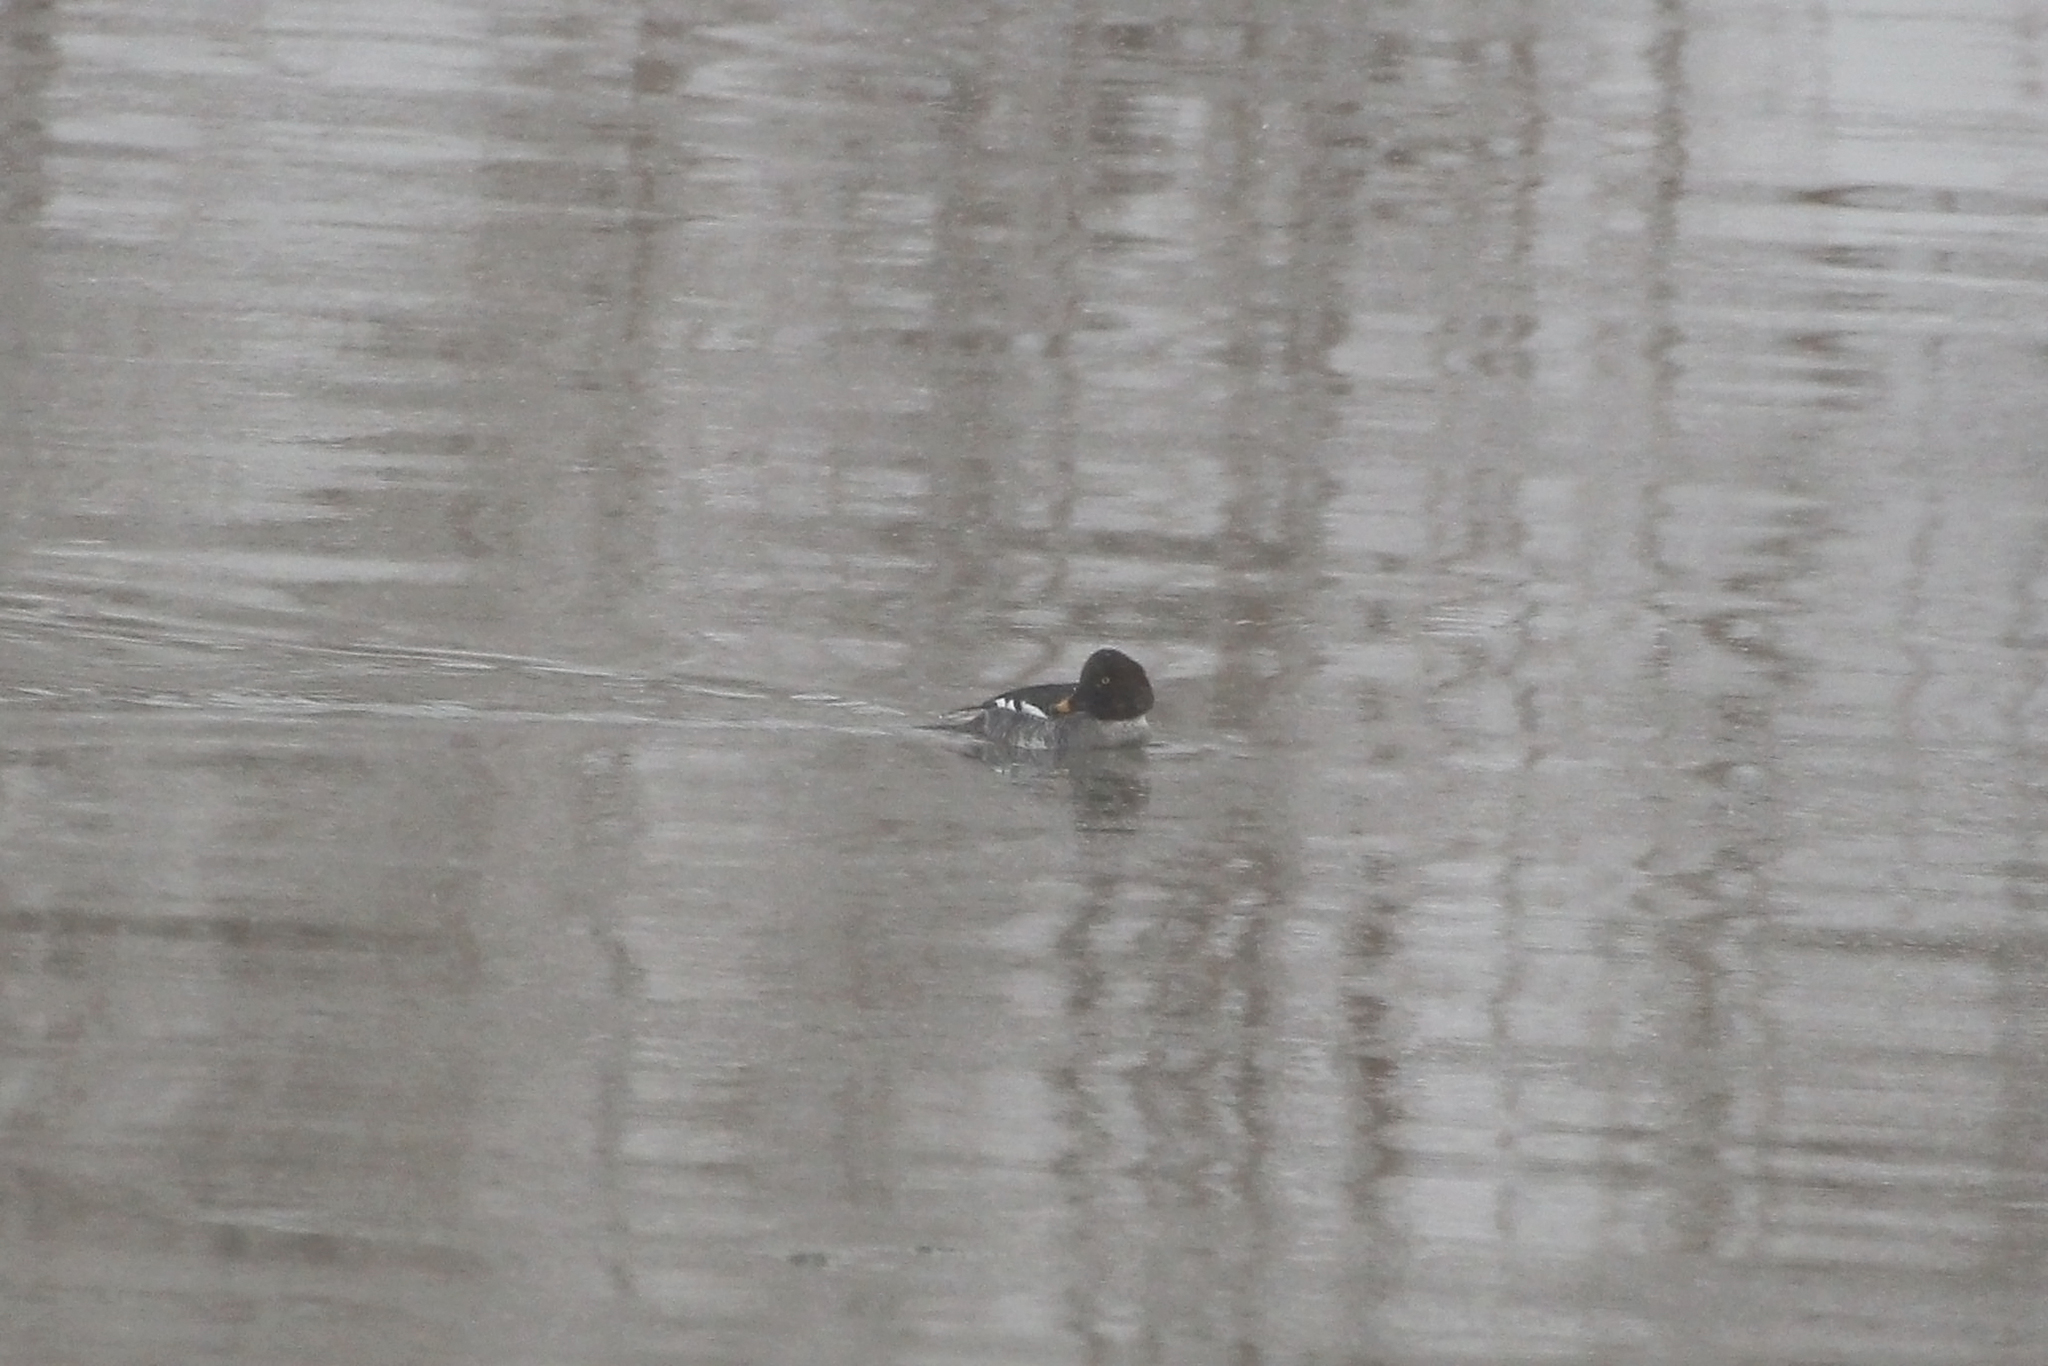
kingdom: Animalia
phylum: Chordata
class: Aves
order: Anseriformes
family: Anatidae
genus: Bucephala
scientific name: Bucephala clangula
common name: Common goldeneye
